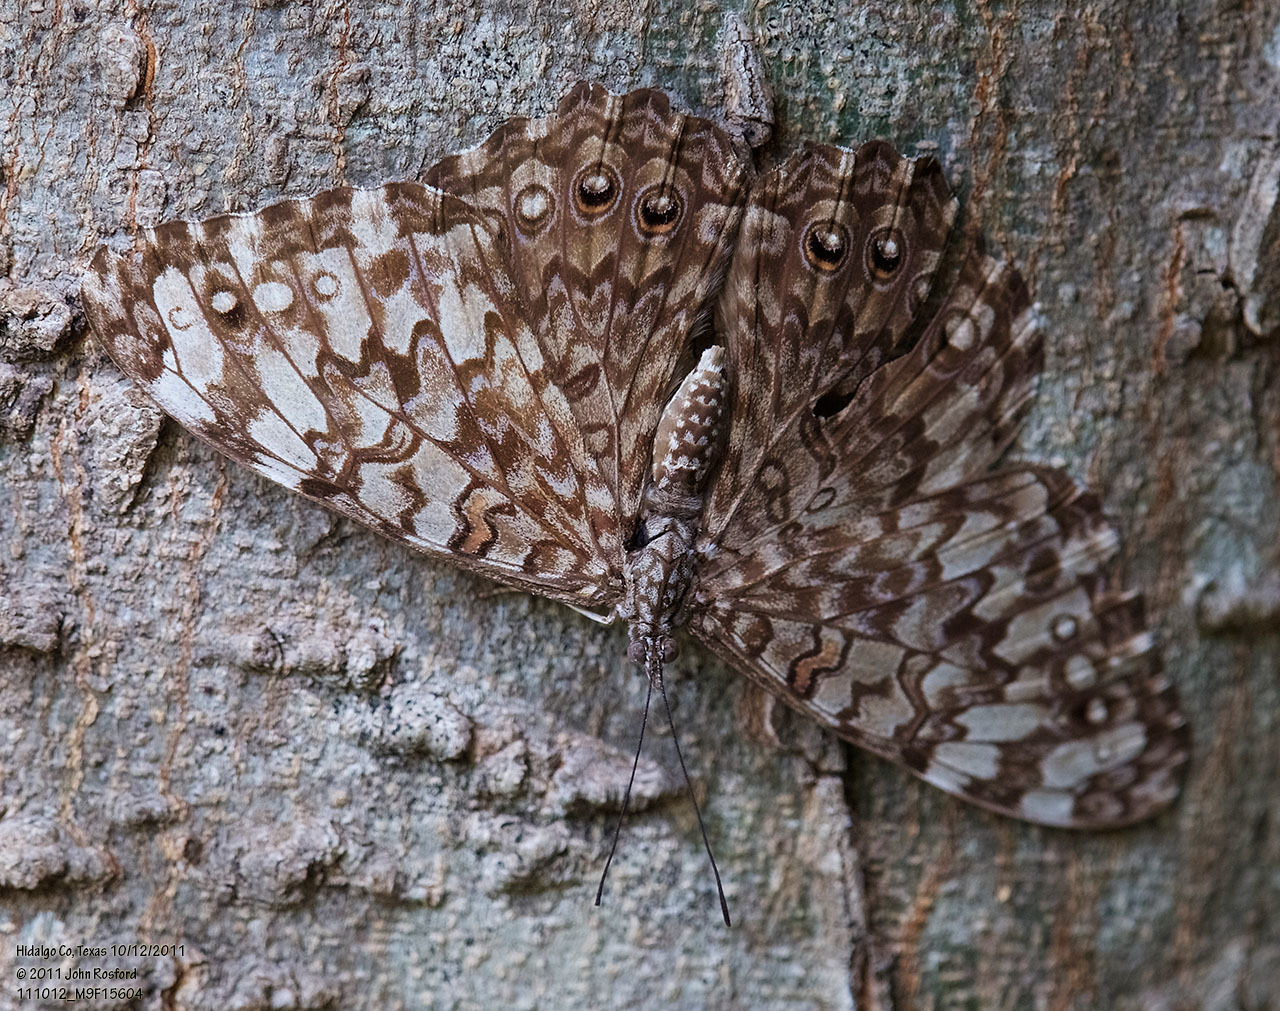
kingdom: Animalia
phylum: Arthropoda
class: Insecta
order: Lepidoptera
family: Nymphalidae
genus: Hamadryas
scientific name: Hamadryas februa
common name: Gray cracker
